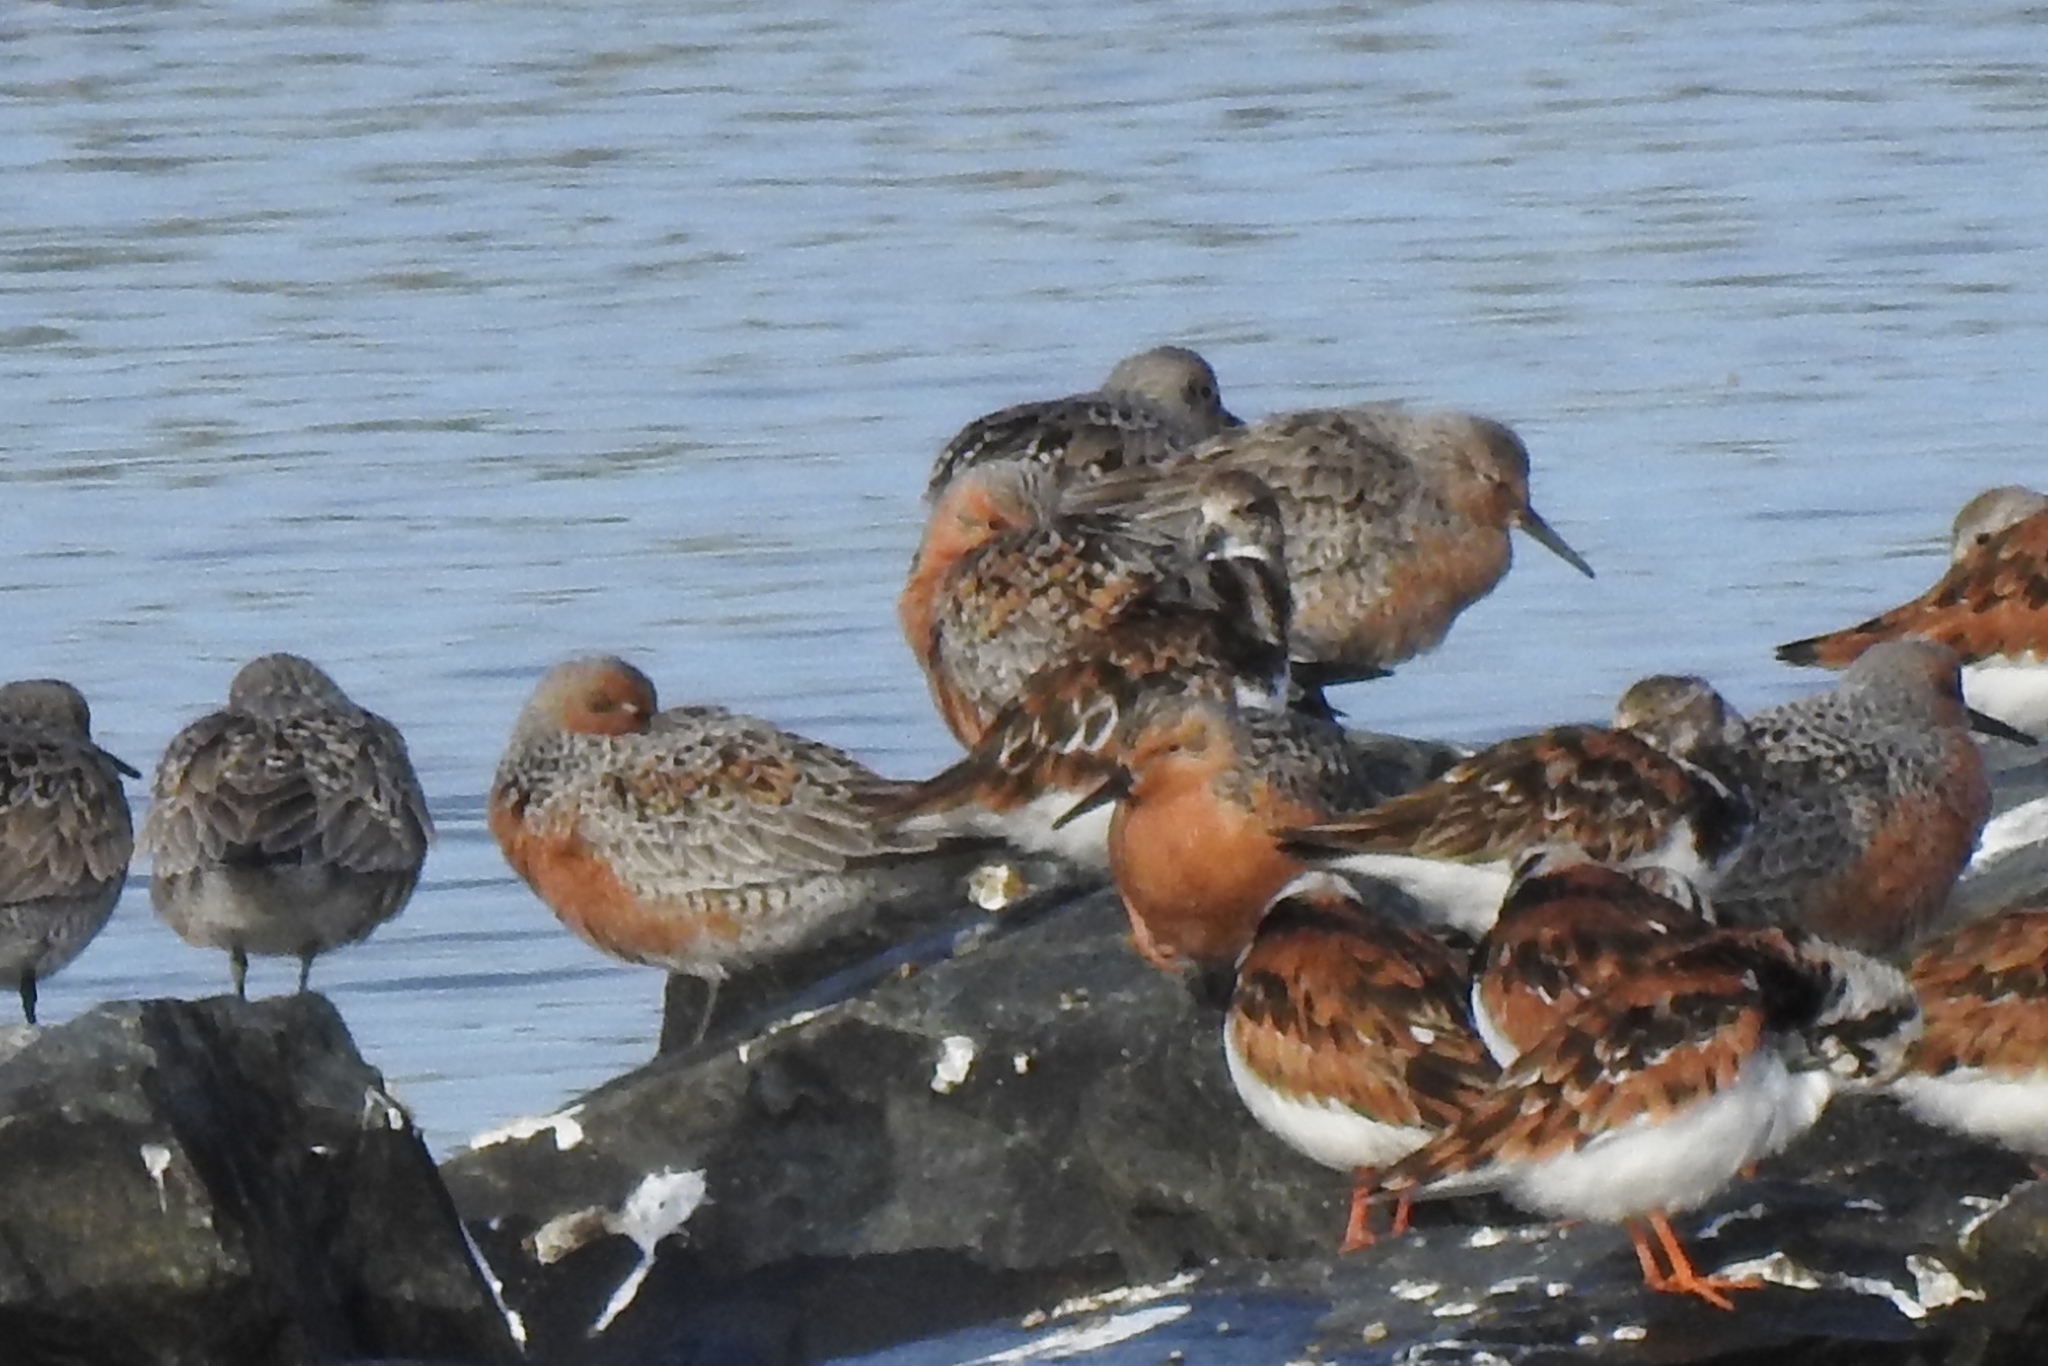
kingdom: Animalia
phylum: Chordata
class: Aves
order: Charadriiformes
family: Scolopacidae
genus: Calidris
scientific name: Calidris canutus
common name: Red knot
